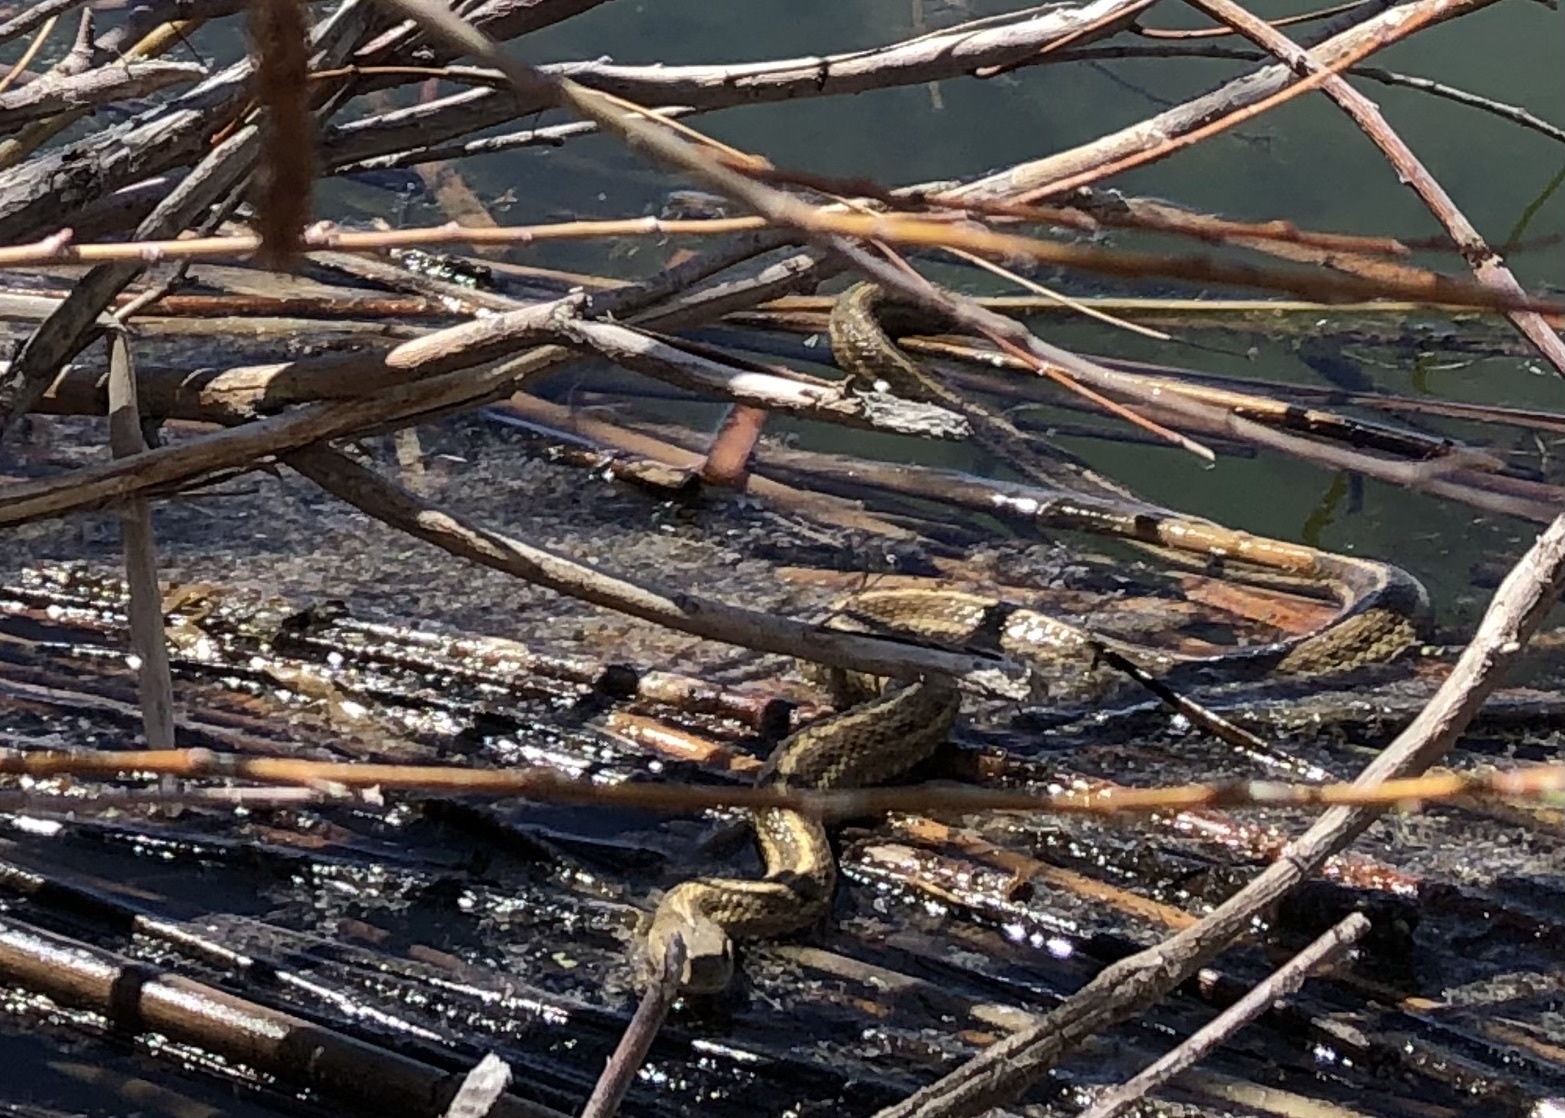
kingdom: Animalia
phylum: Chordata
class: Squamata
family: Colubridae
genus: Thamnophis
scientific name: Thamnophis elegans
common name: Western terrestrial garter snake
